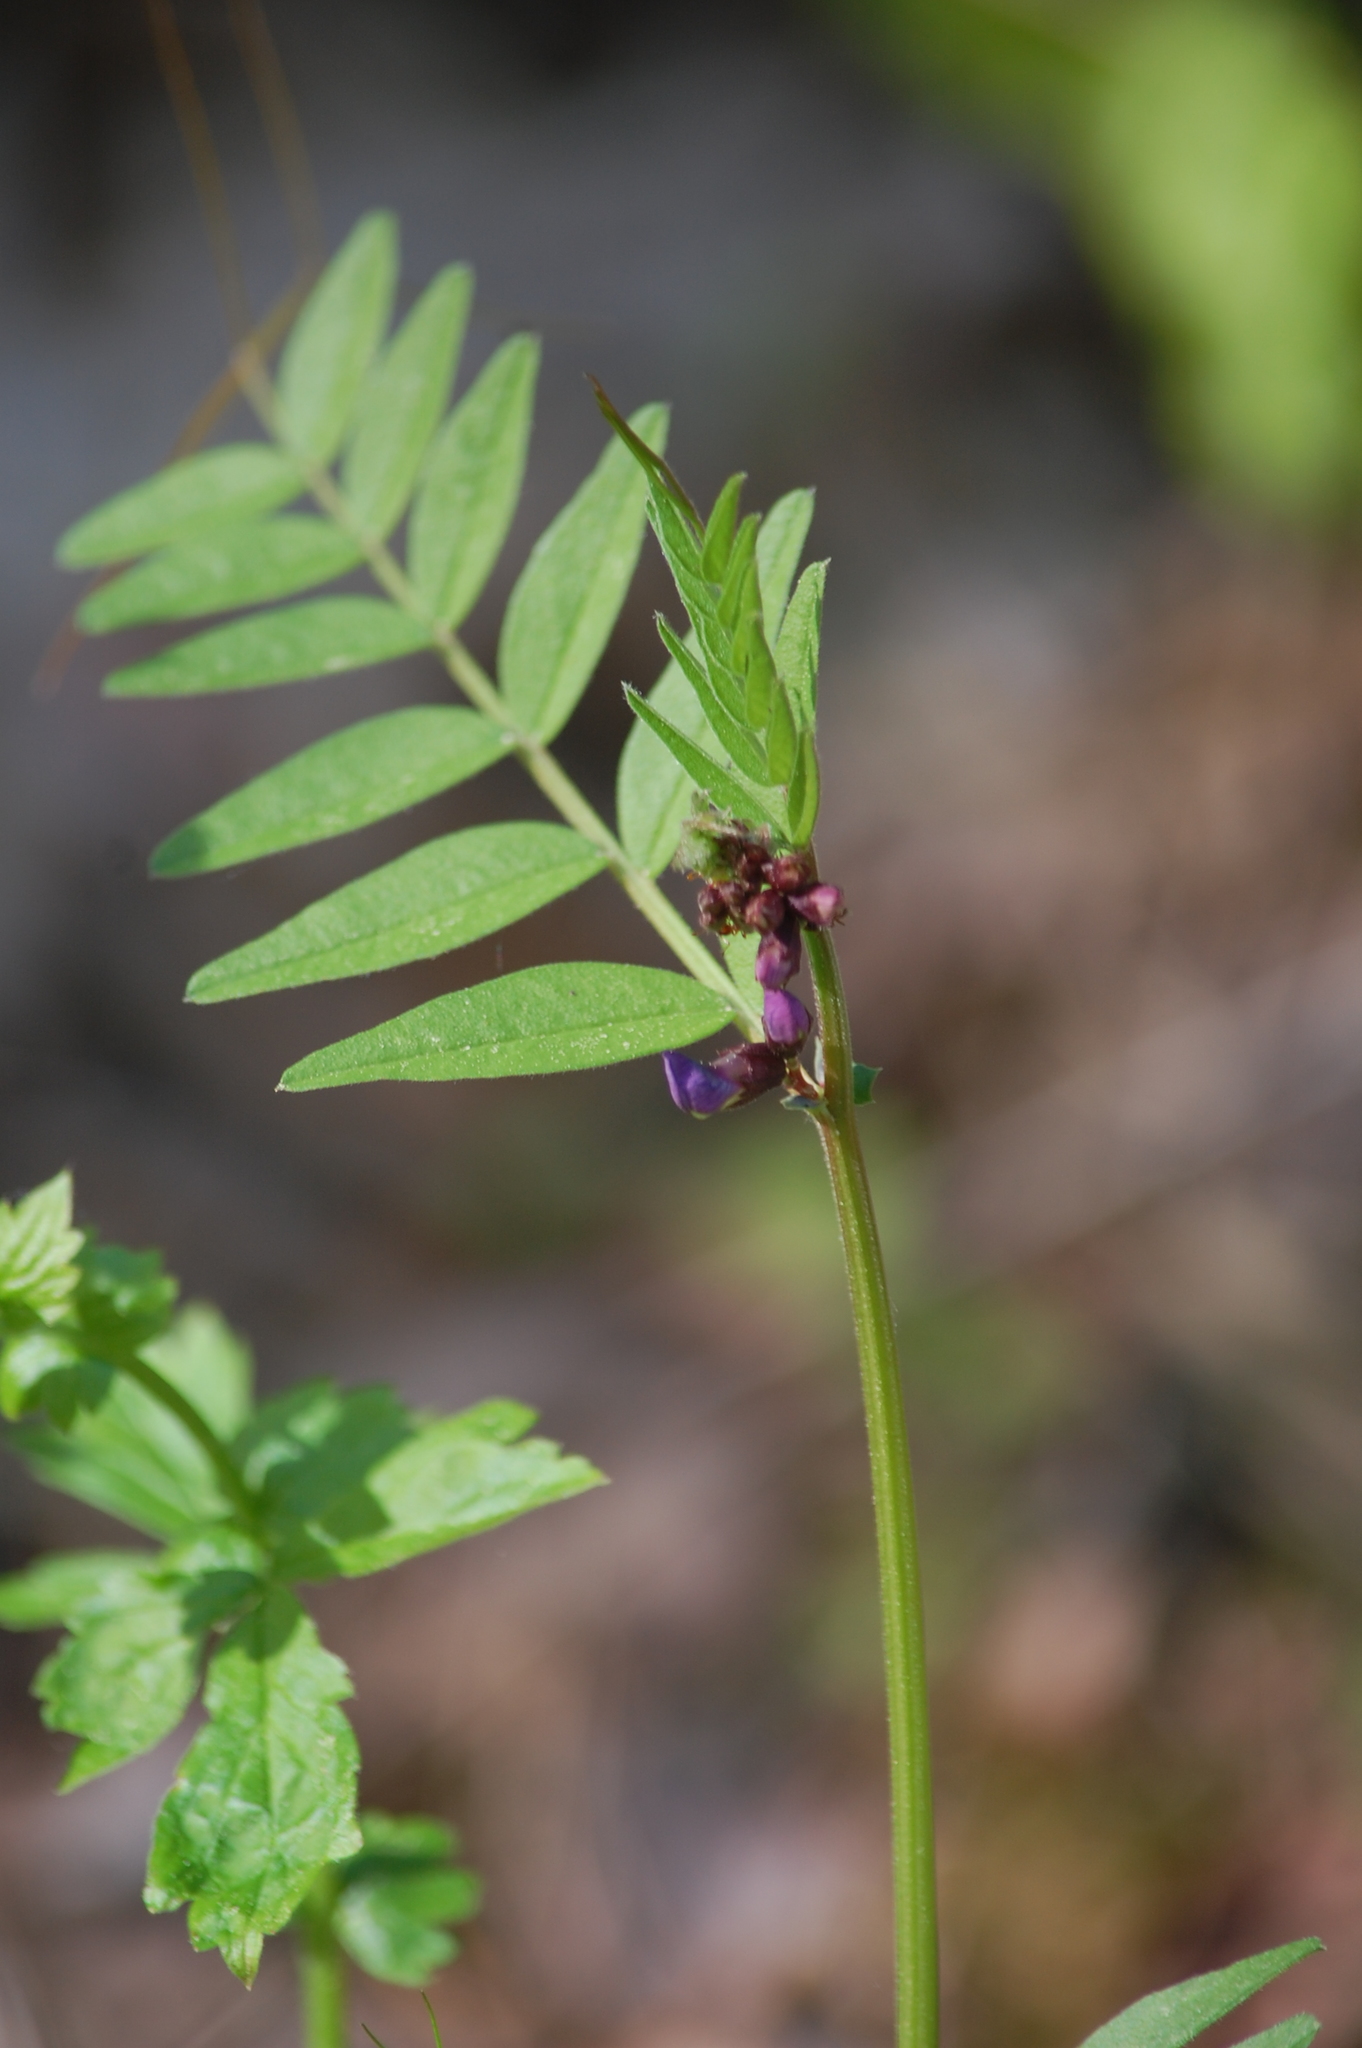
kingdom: Plantae
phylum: Tracheophyta
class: Magnoliopsida
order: Fabales
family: Fabaceae
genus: Vicia
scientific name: Vicia sepium
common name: Bush vetch
